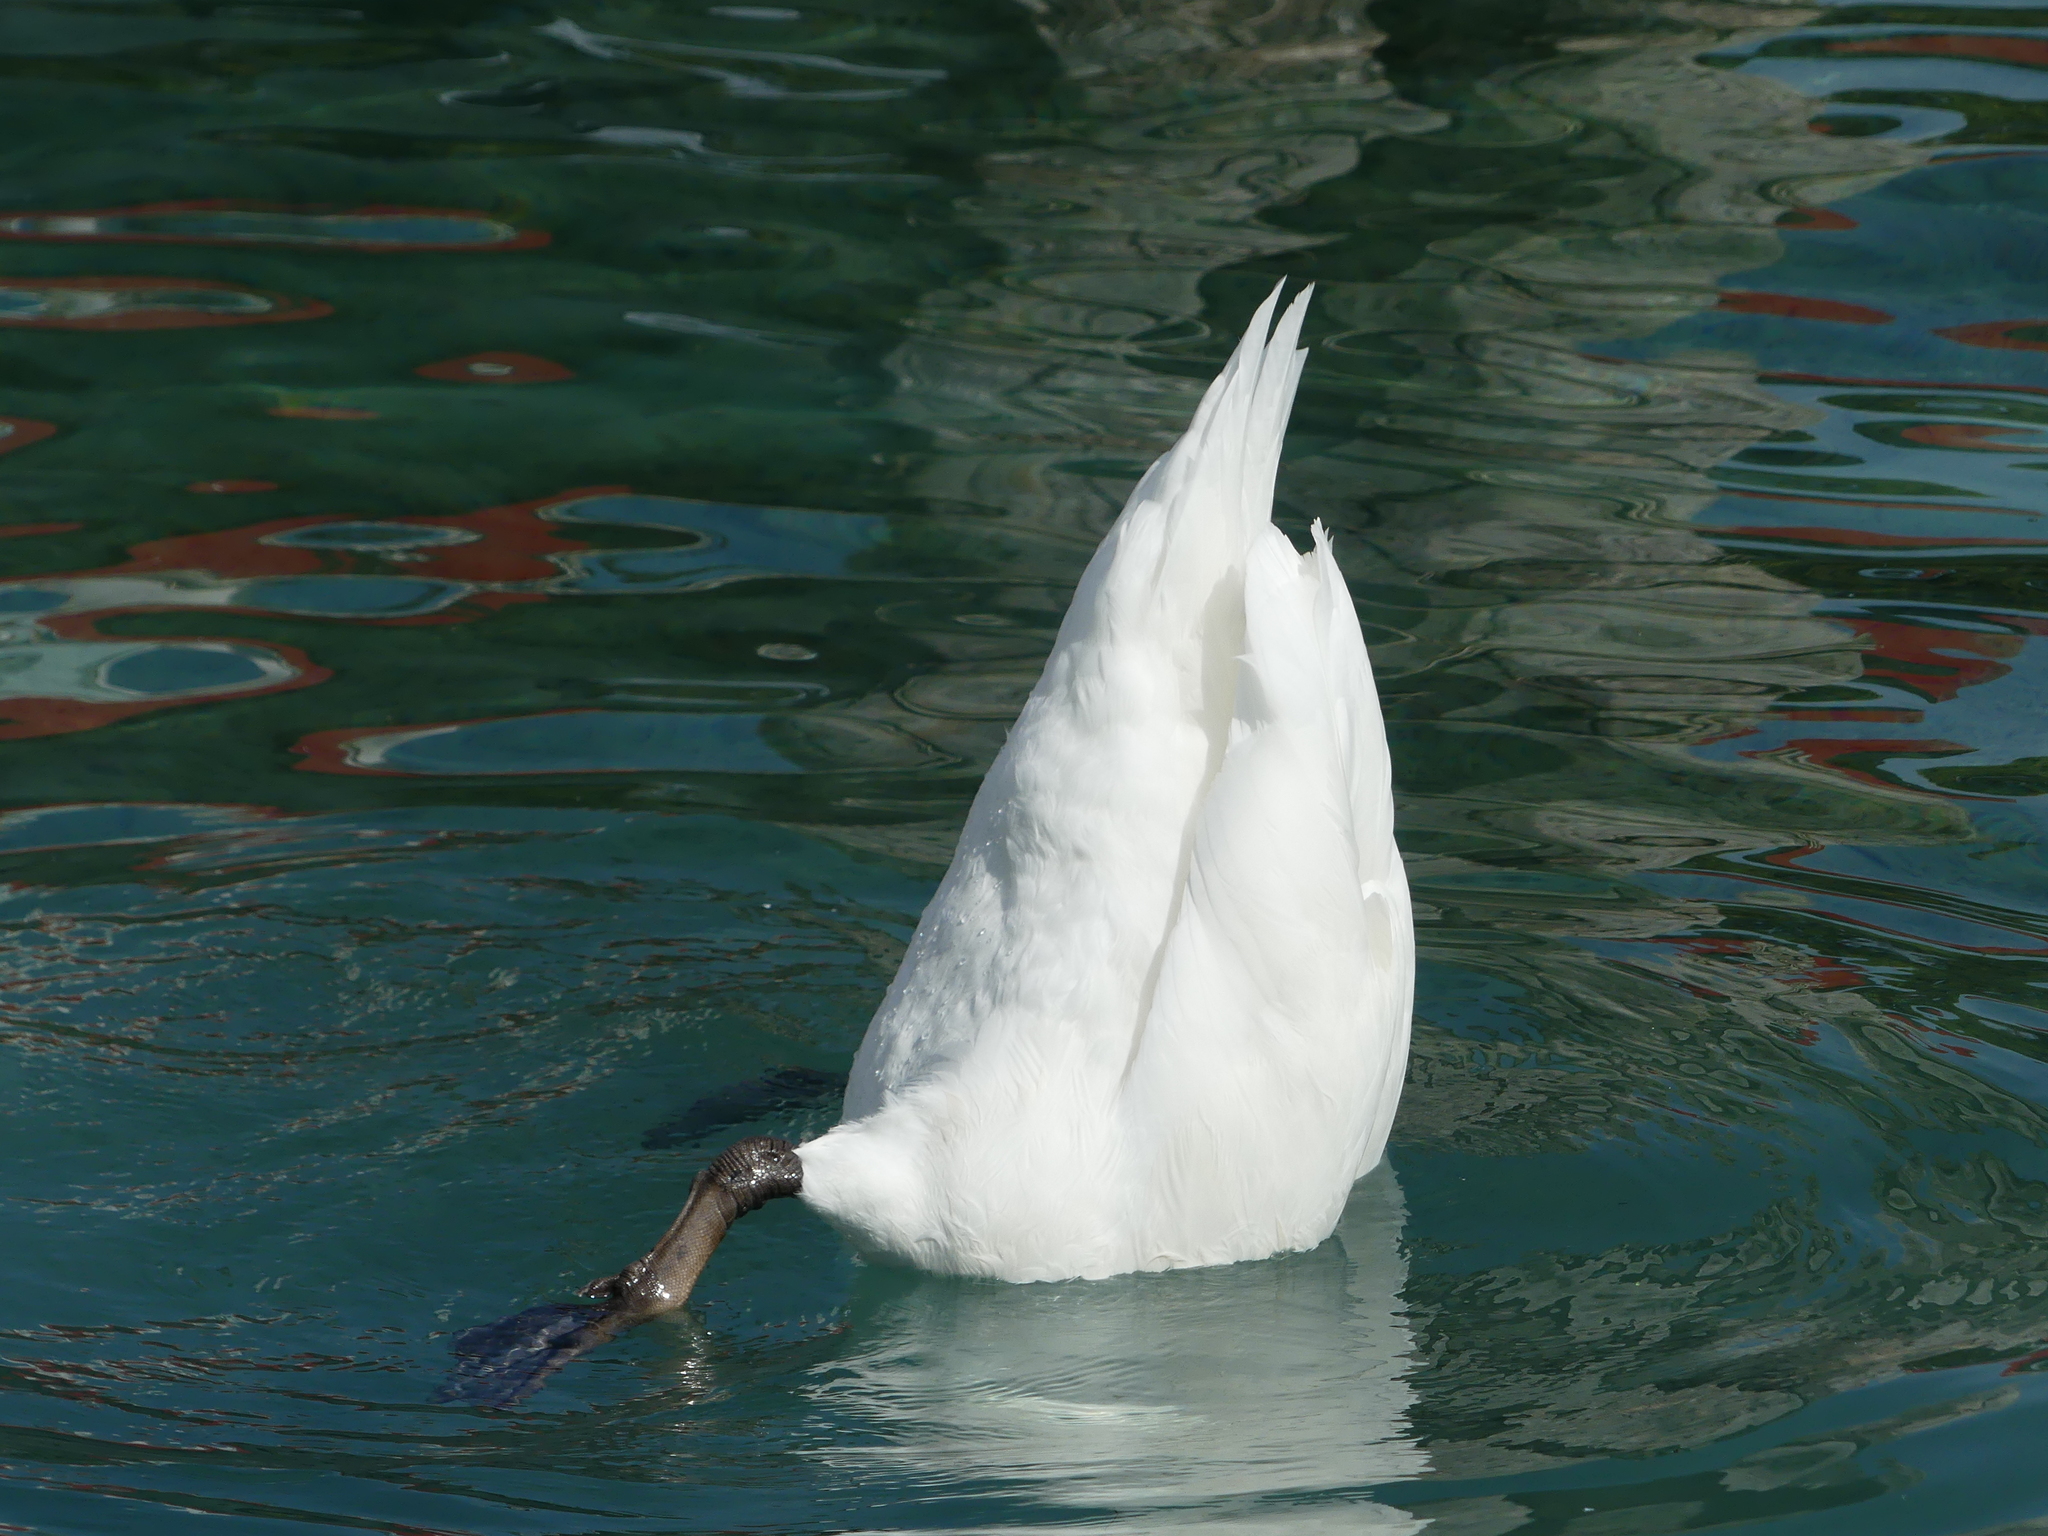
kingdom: Animalia
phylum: Chordata
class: Aves
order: Anseriformes
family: Anatidae
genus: Cygnus
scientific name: Cygnus olor
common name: Mute swan
